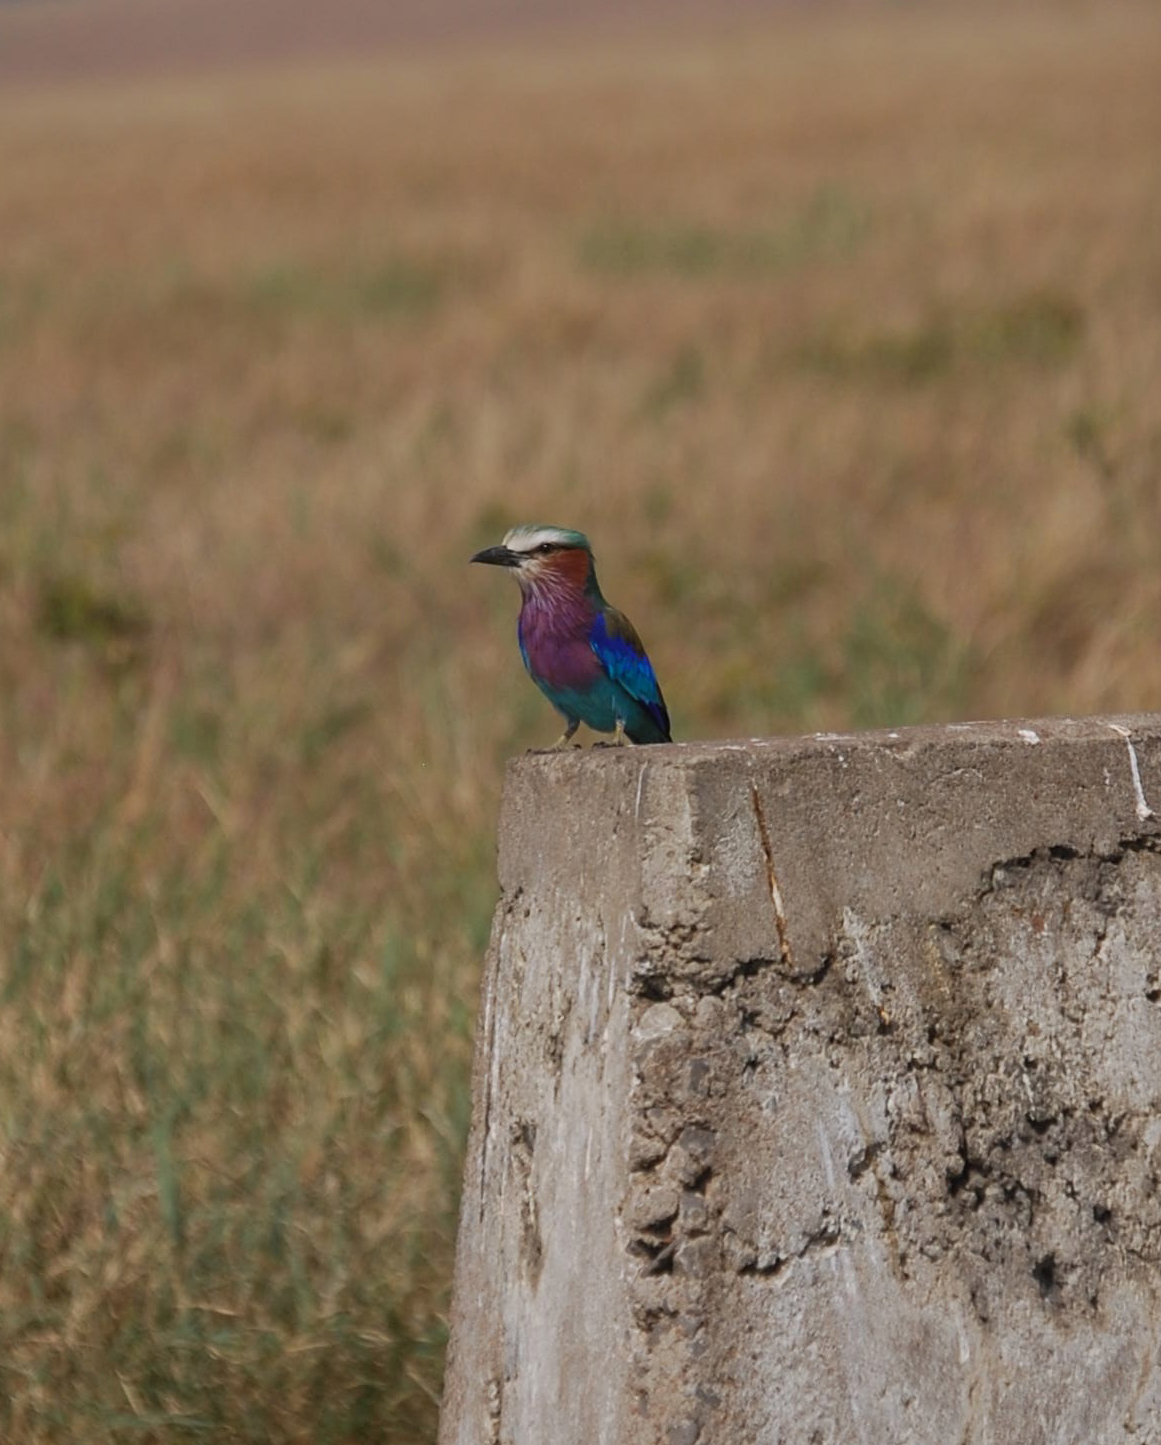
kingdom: Animalia
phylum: Chordata
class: Aves
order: Coraciiformes
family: Coraciidae
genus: Coracias
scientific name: Coracias caudatus
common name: Lilac-breasted roller
